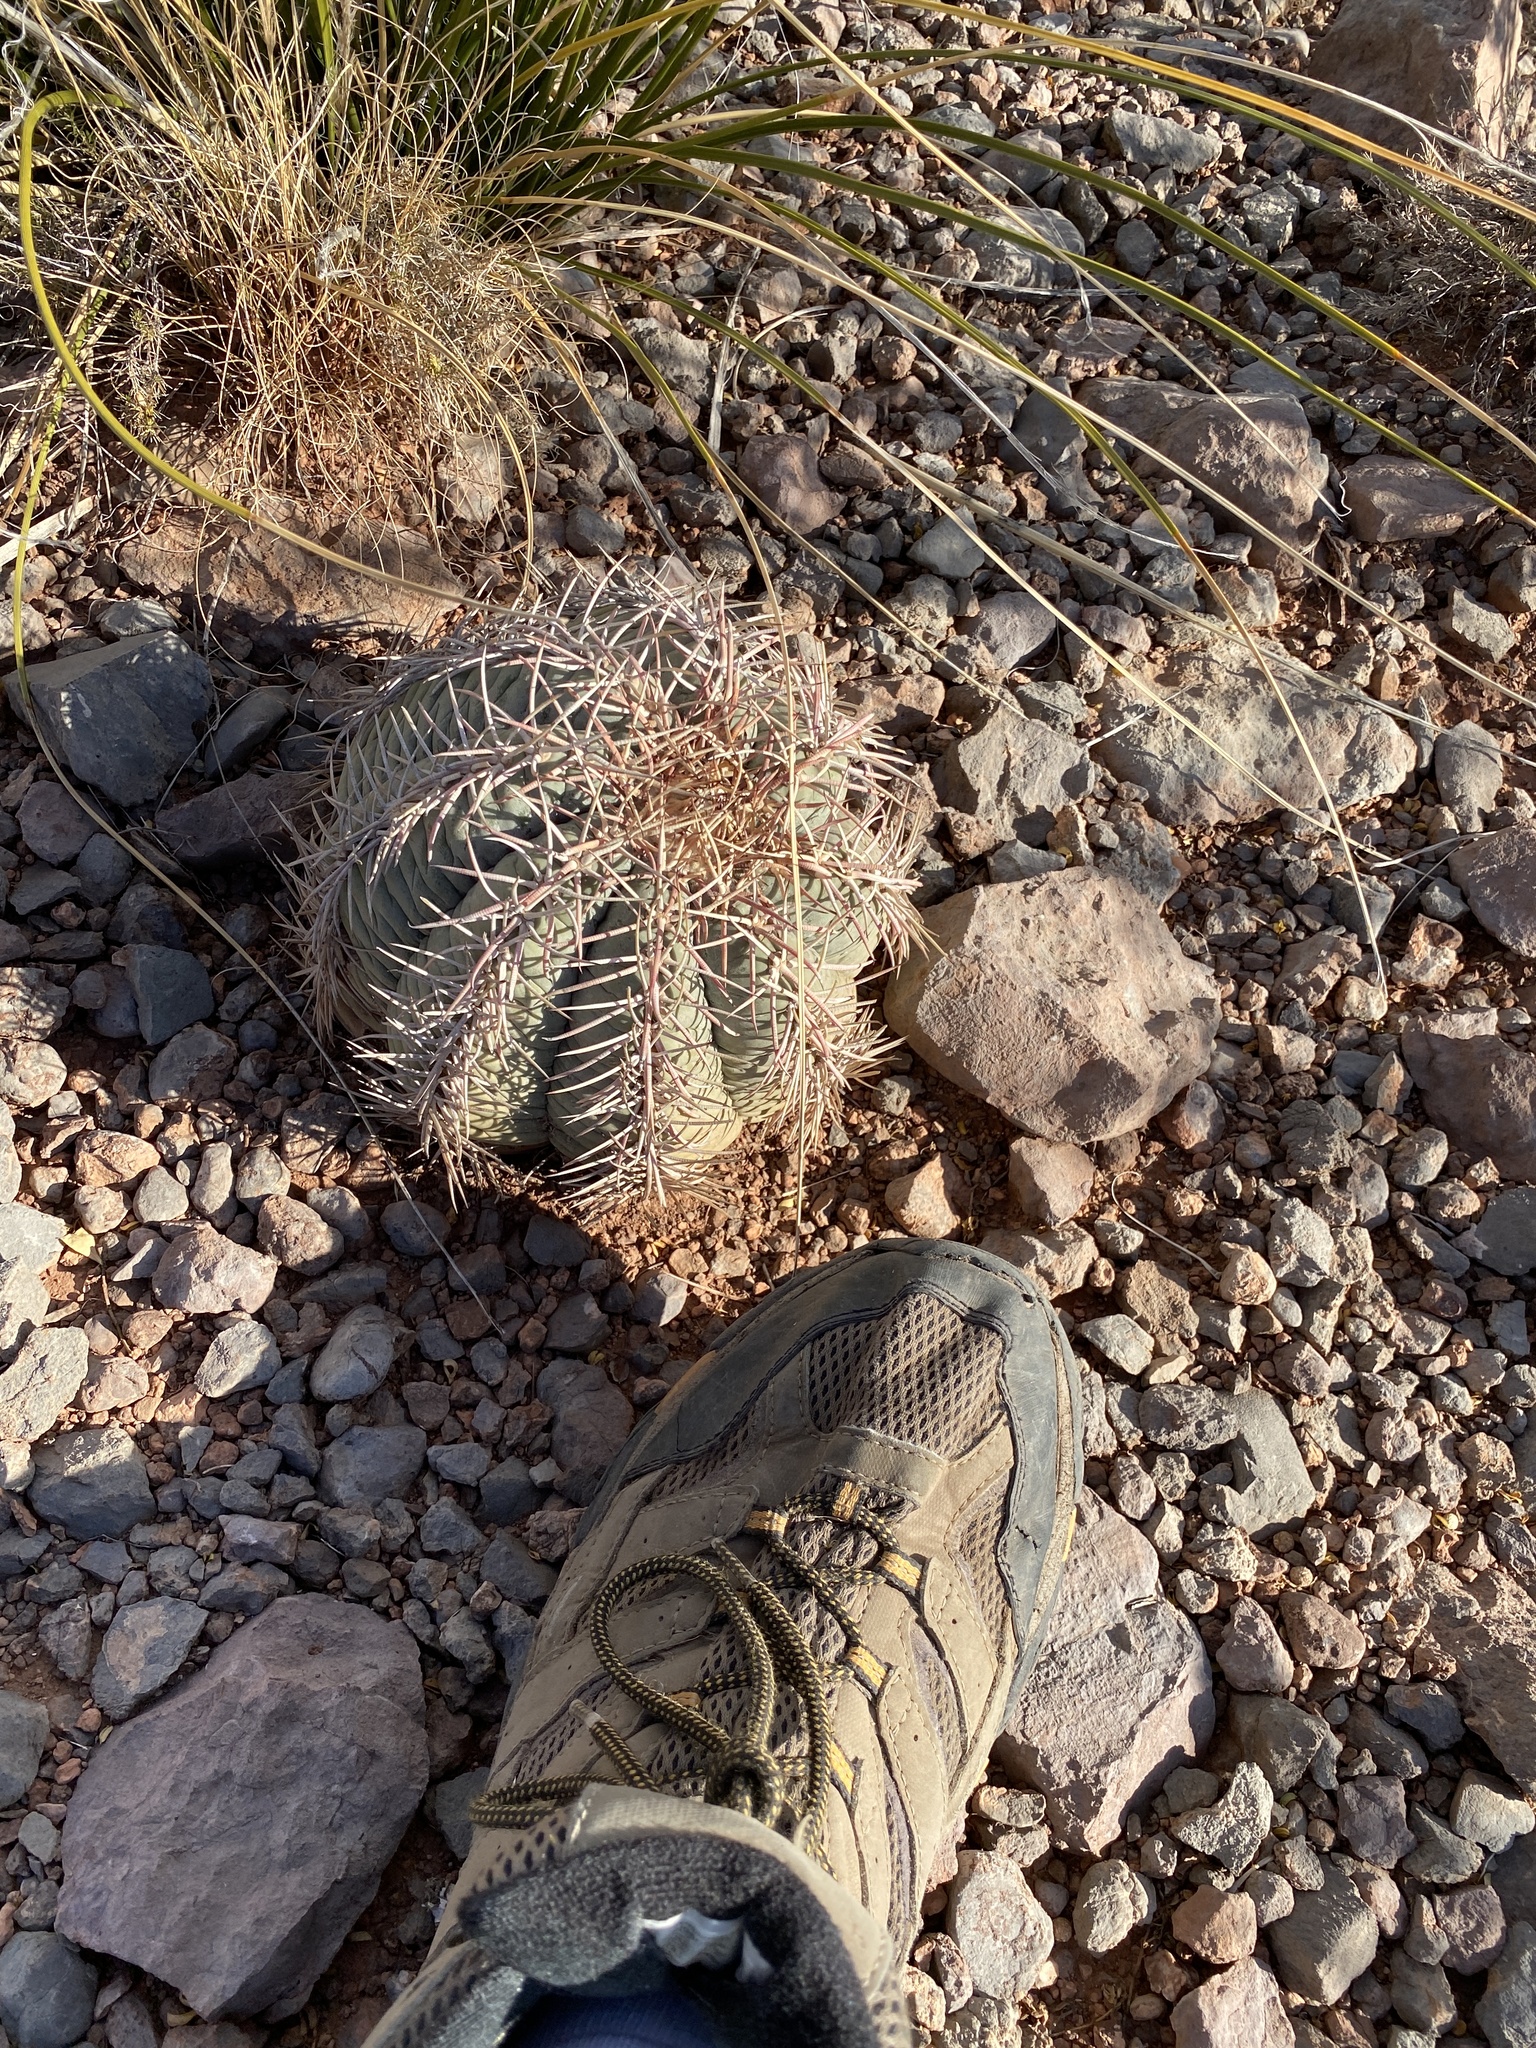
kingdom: Plantae
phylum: Tracheophyta
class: Magnoliopsida
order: Caryophyllales
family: Cactaceae
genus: Echinocactus
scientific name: Echinocactus horizonthalonius
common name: Devilshead
